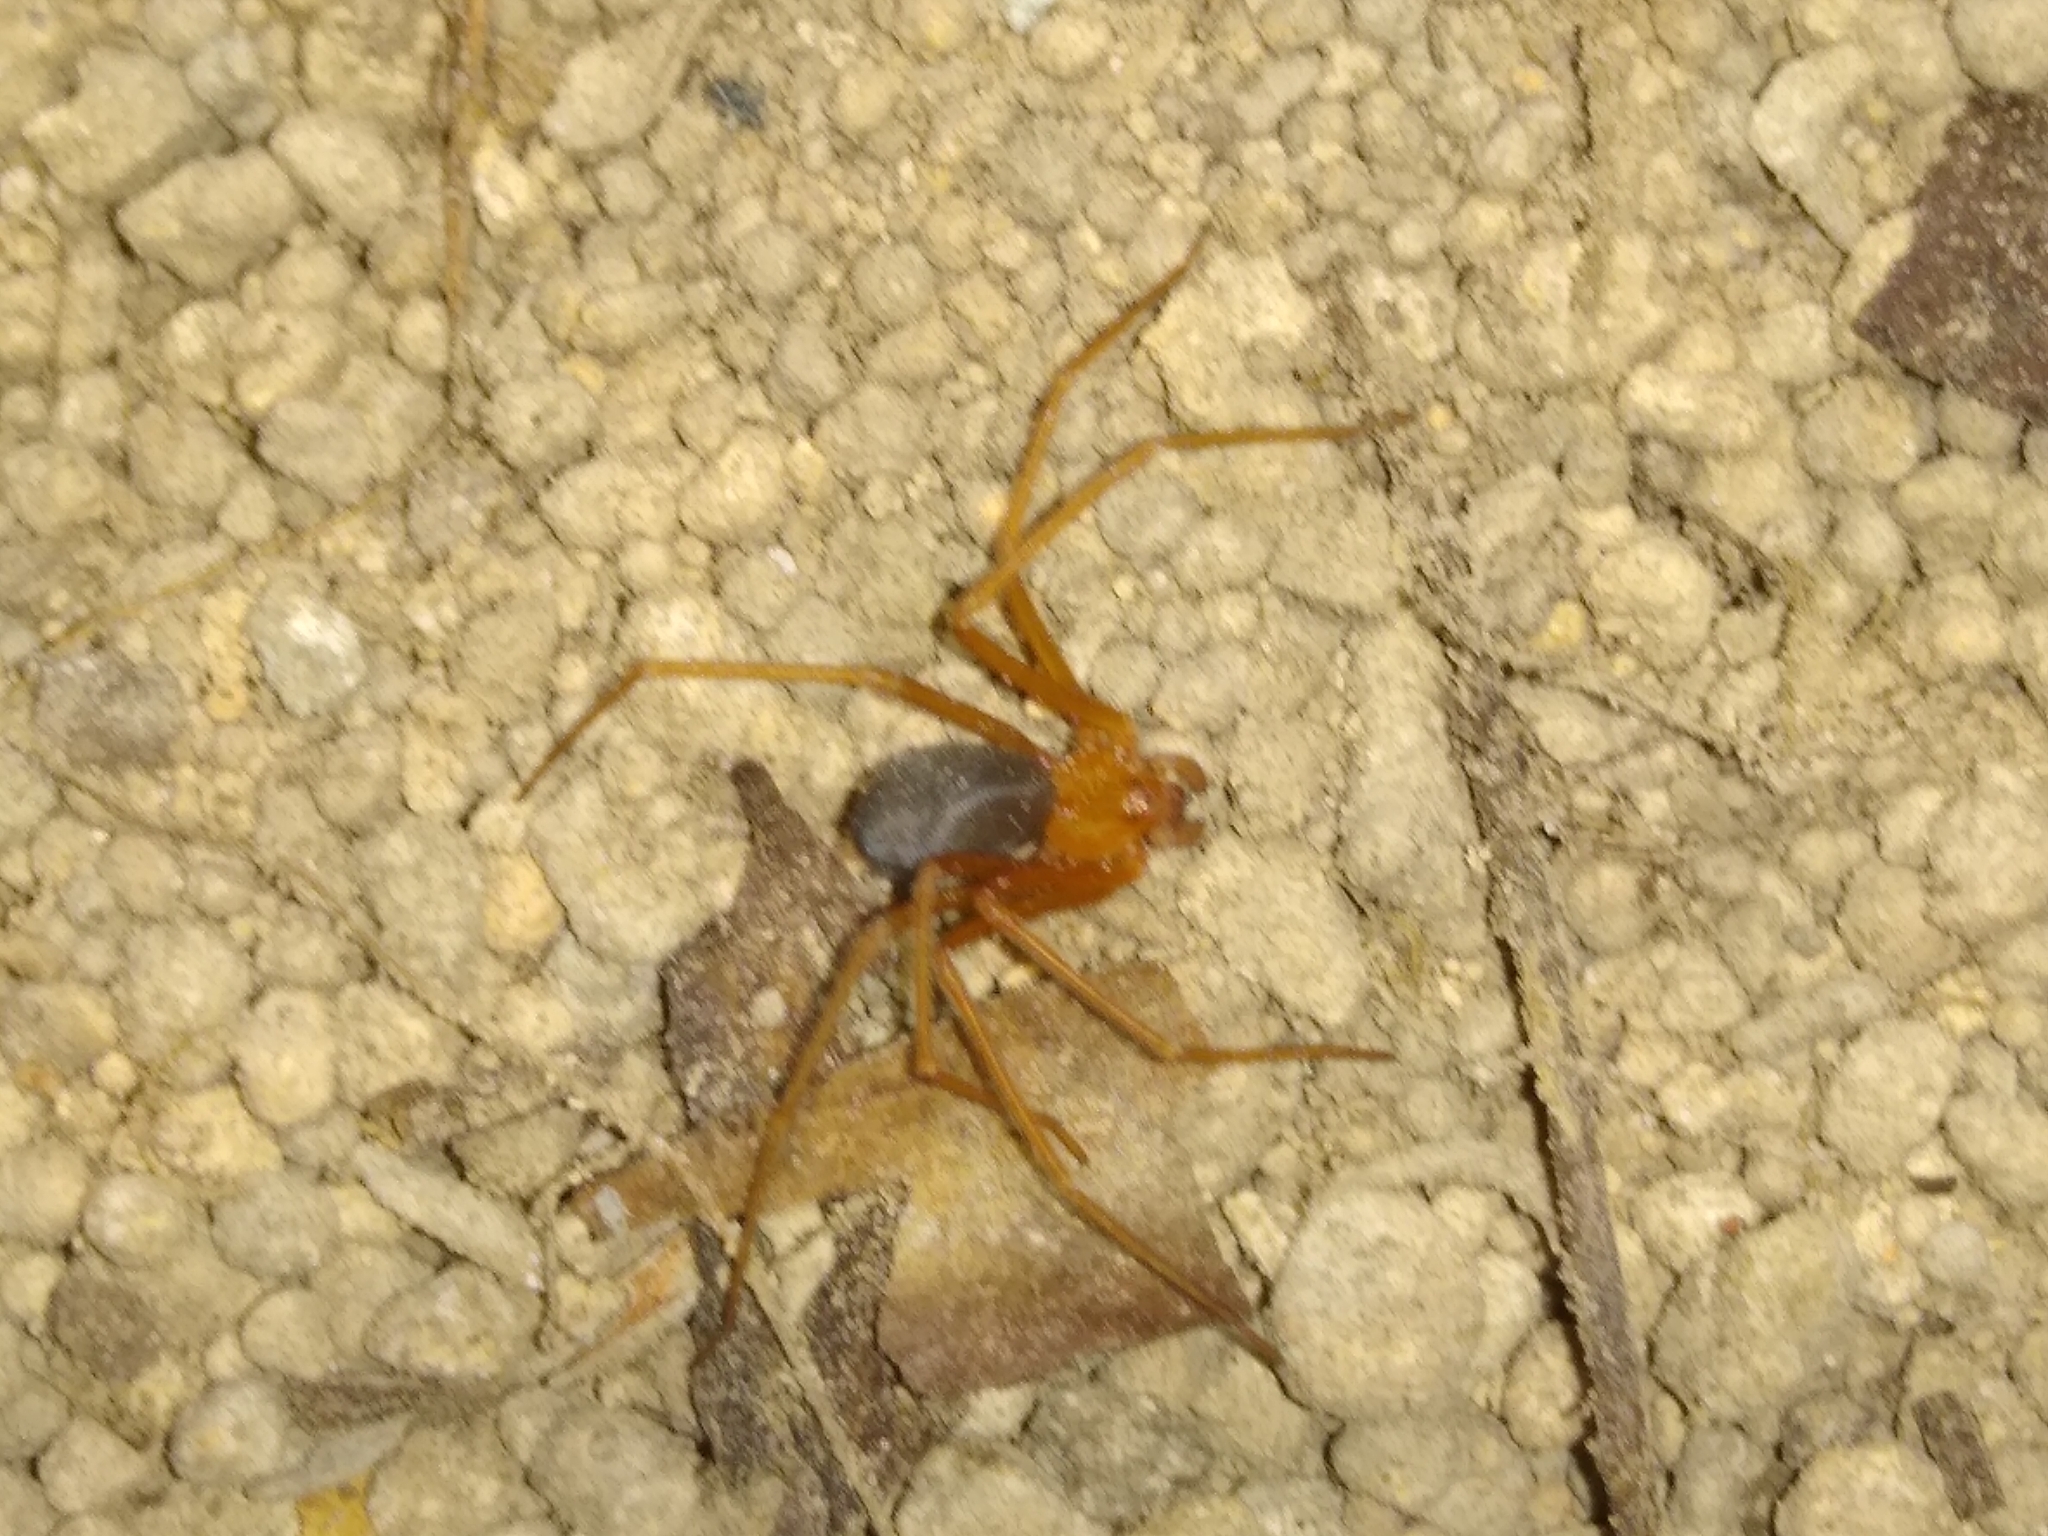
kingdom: Animalia
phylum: Arthropoda
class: Arachnida
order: Araneae
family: Sicariidae
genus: Loxosceles
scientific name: Loxosceles yucatana
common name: Violin spiders
